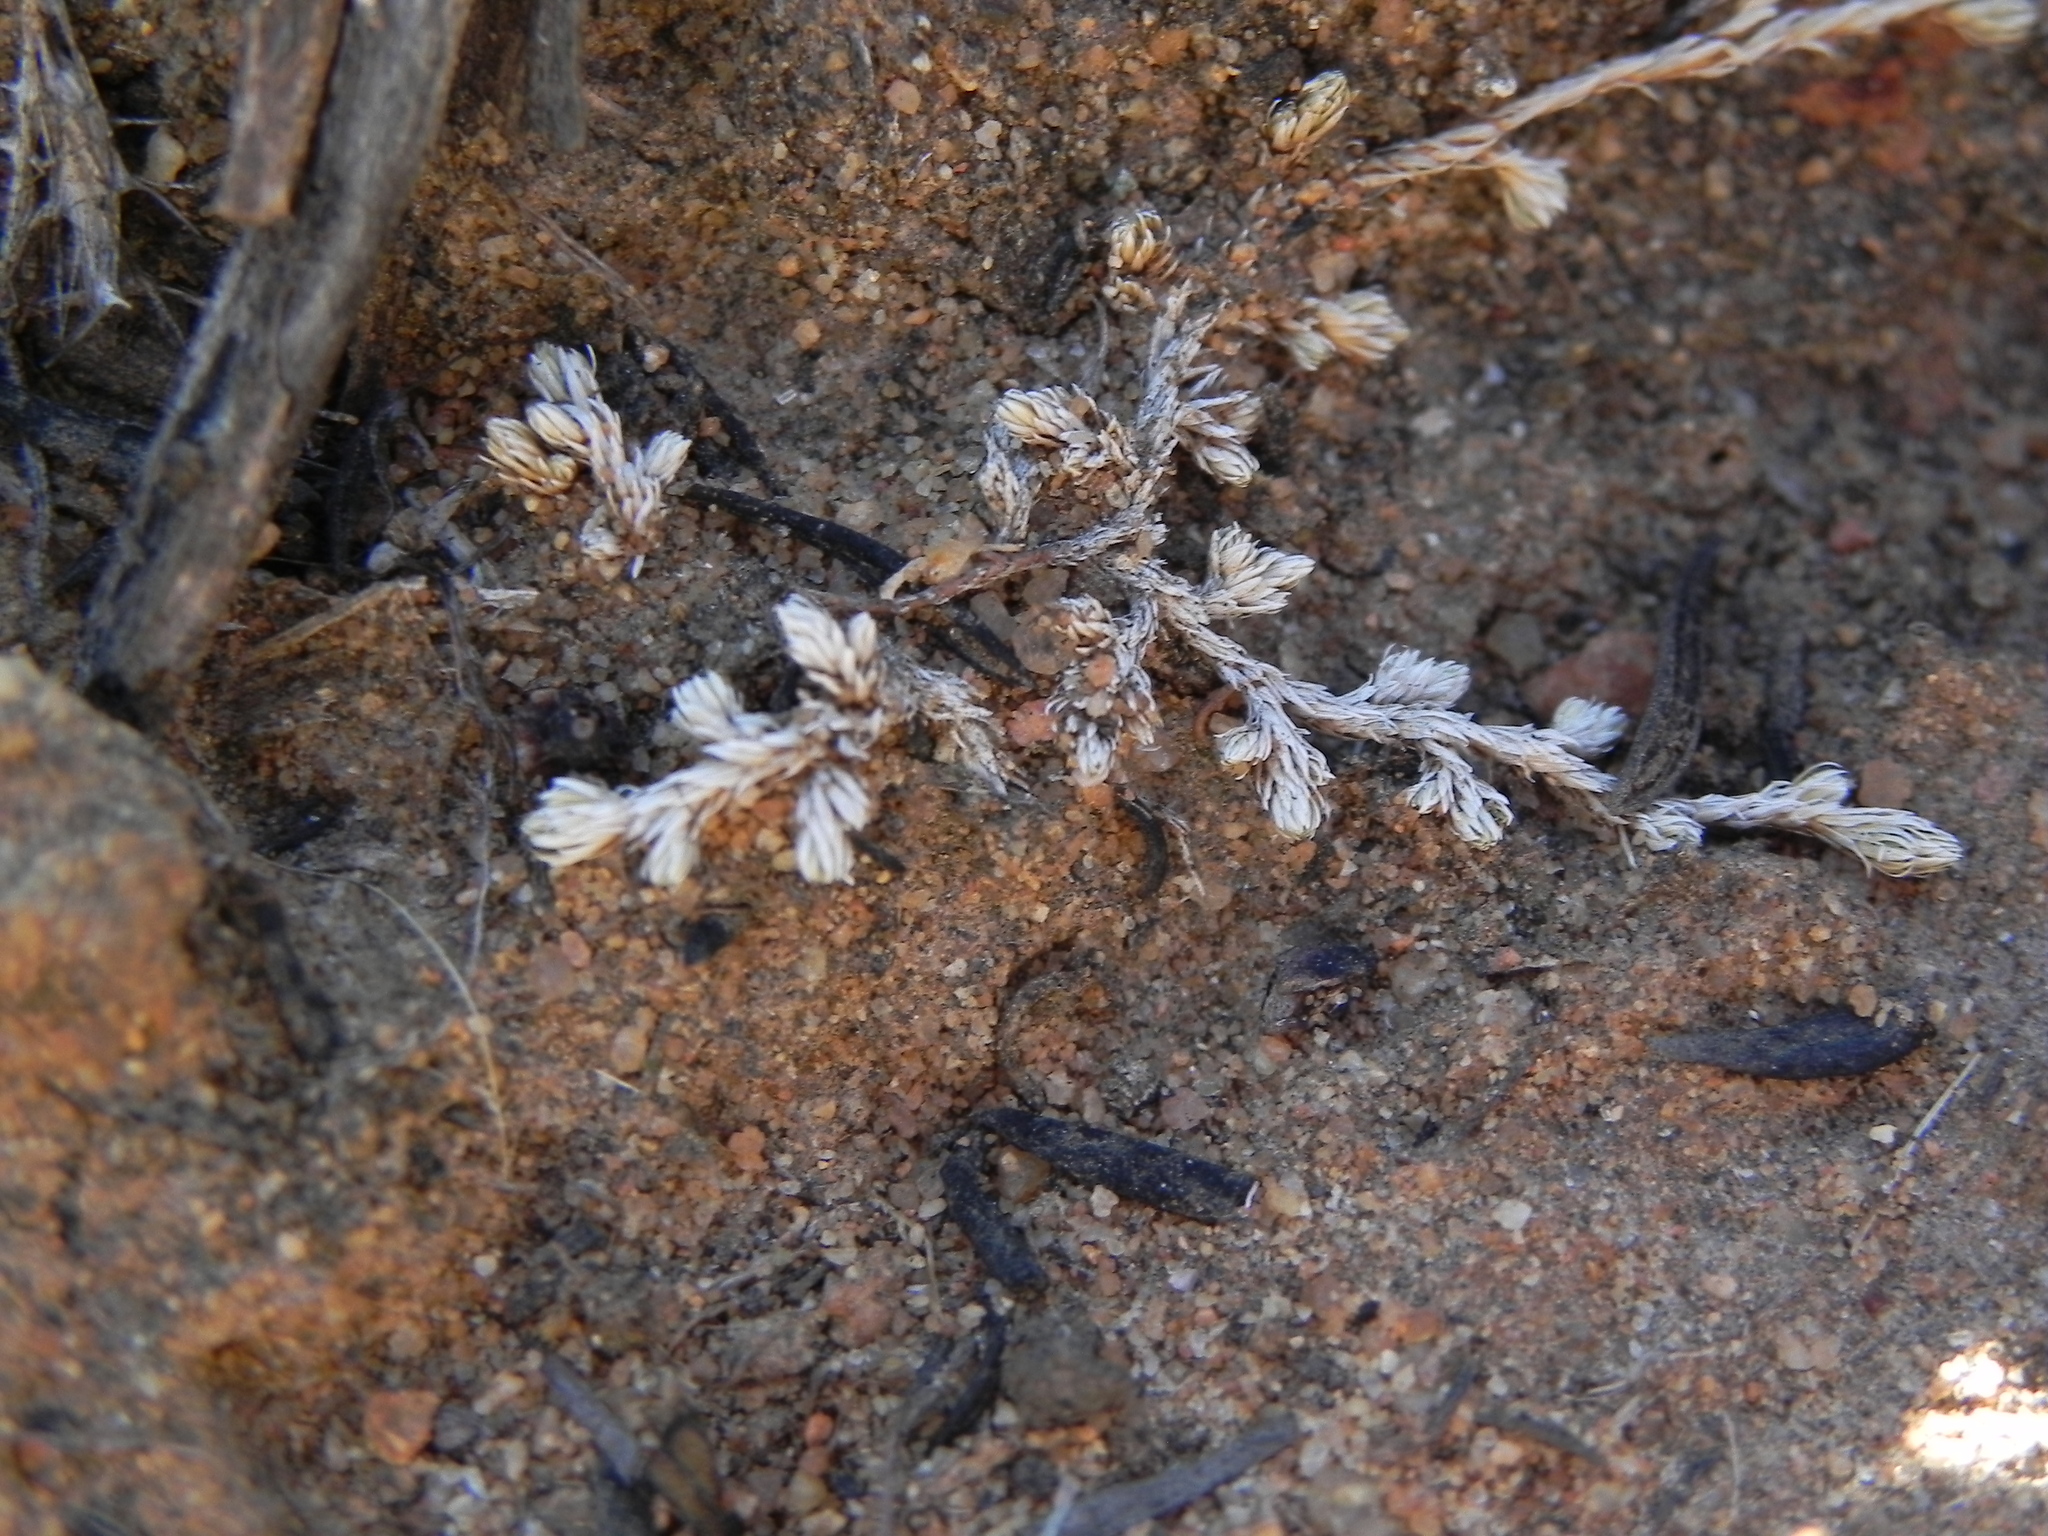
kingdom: Plantae
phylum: Tracheophyta
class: Lycopodiopsida
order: Selaginellales
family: Selaginellaceae
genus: Selaginella
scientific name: Selaginella cinerascens
